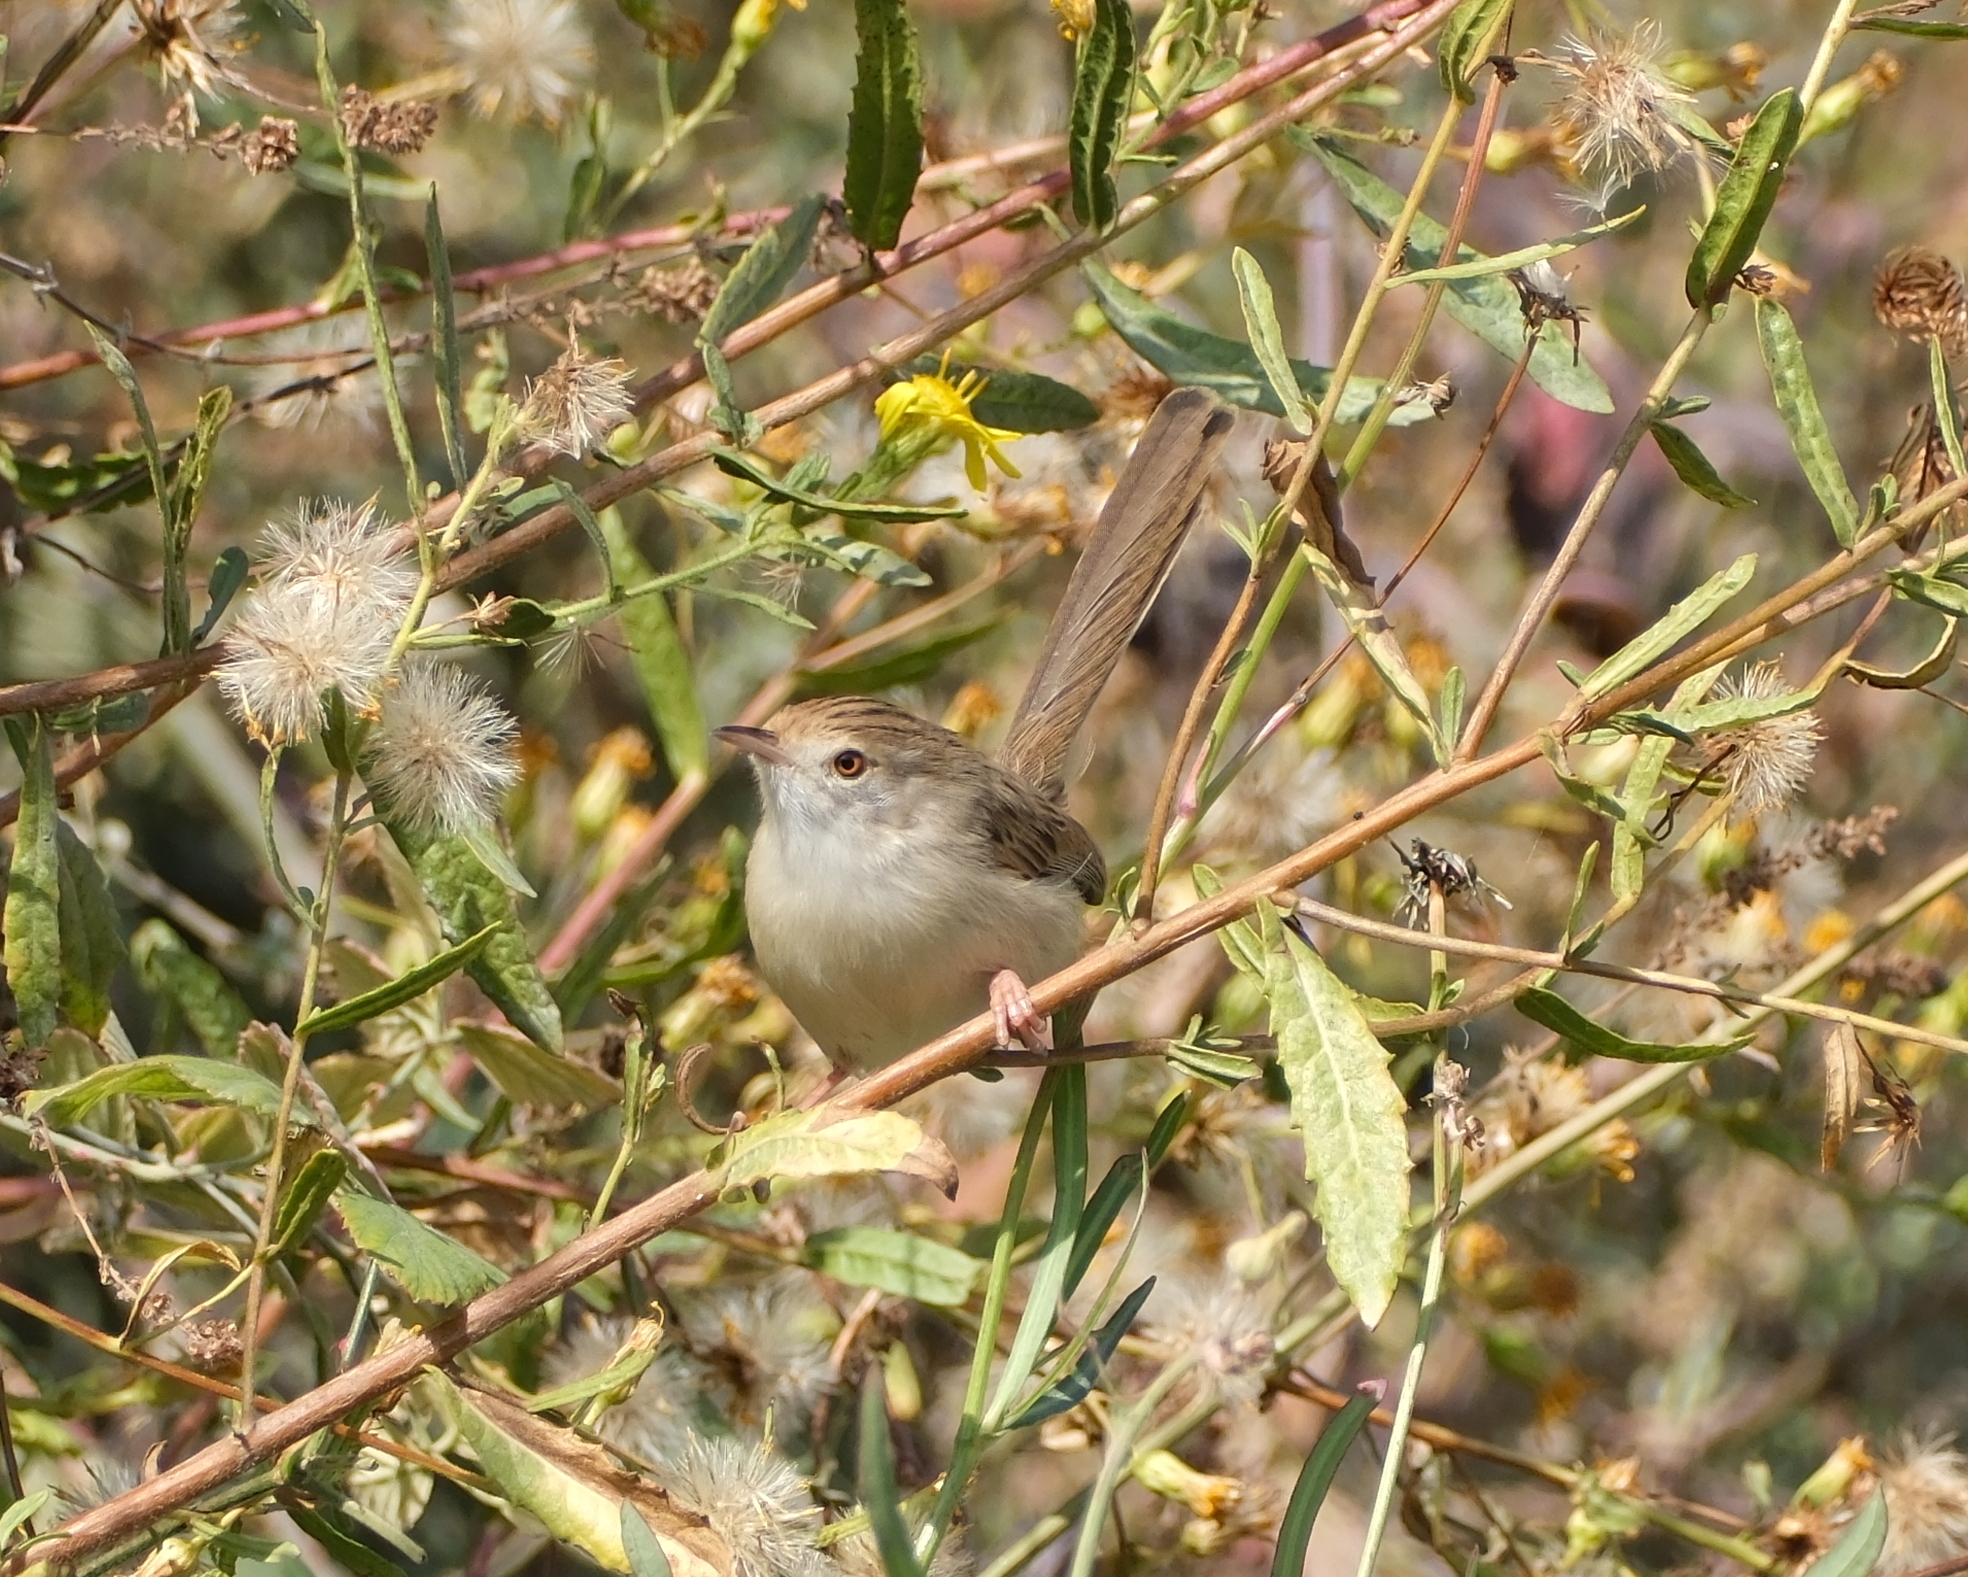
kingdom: Animalia
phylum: Chordata
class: Aves
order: Passeriformes
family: Cisticolidae
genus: Prinia
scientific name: Prinia gracilis
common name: Graceful prinia
